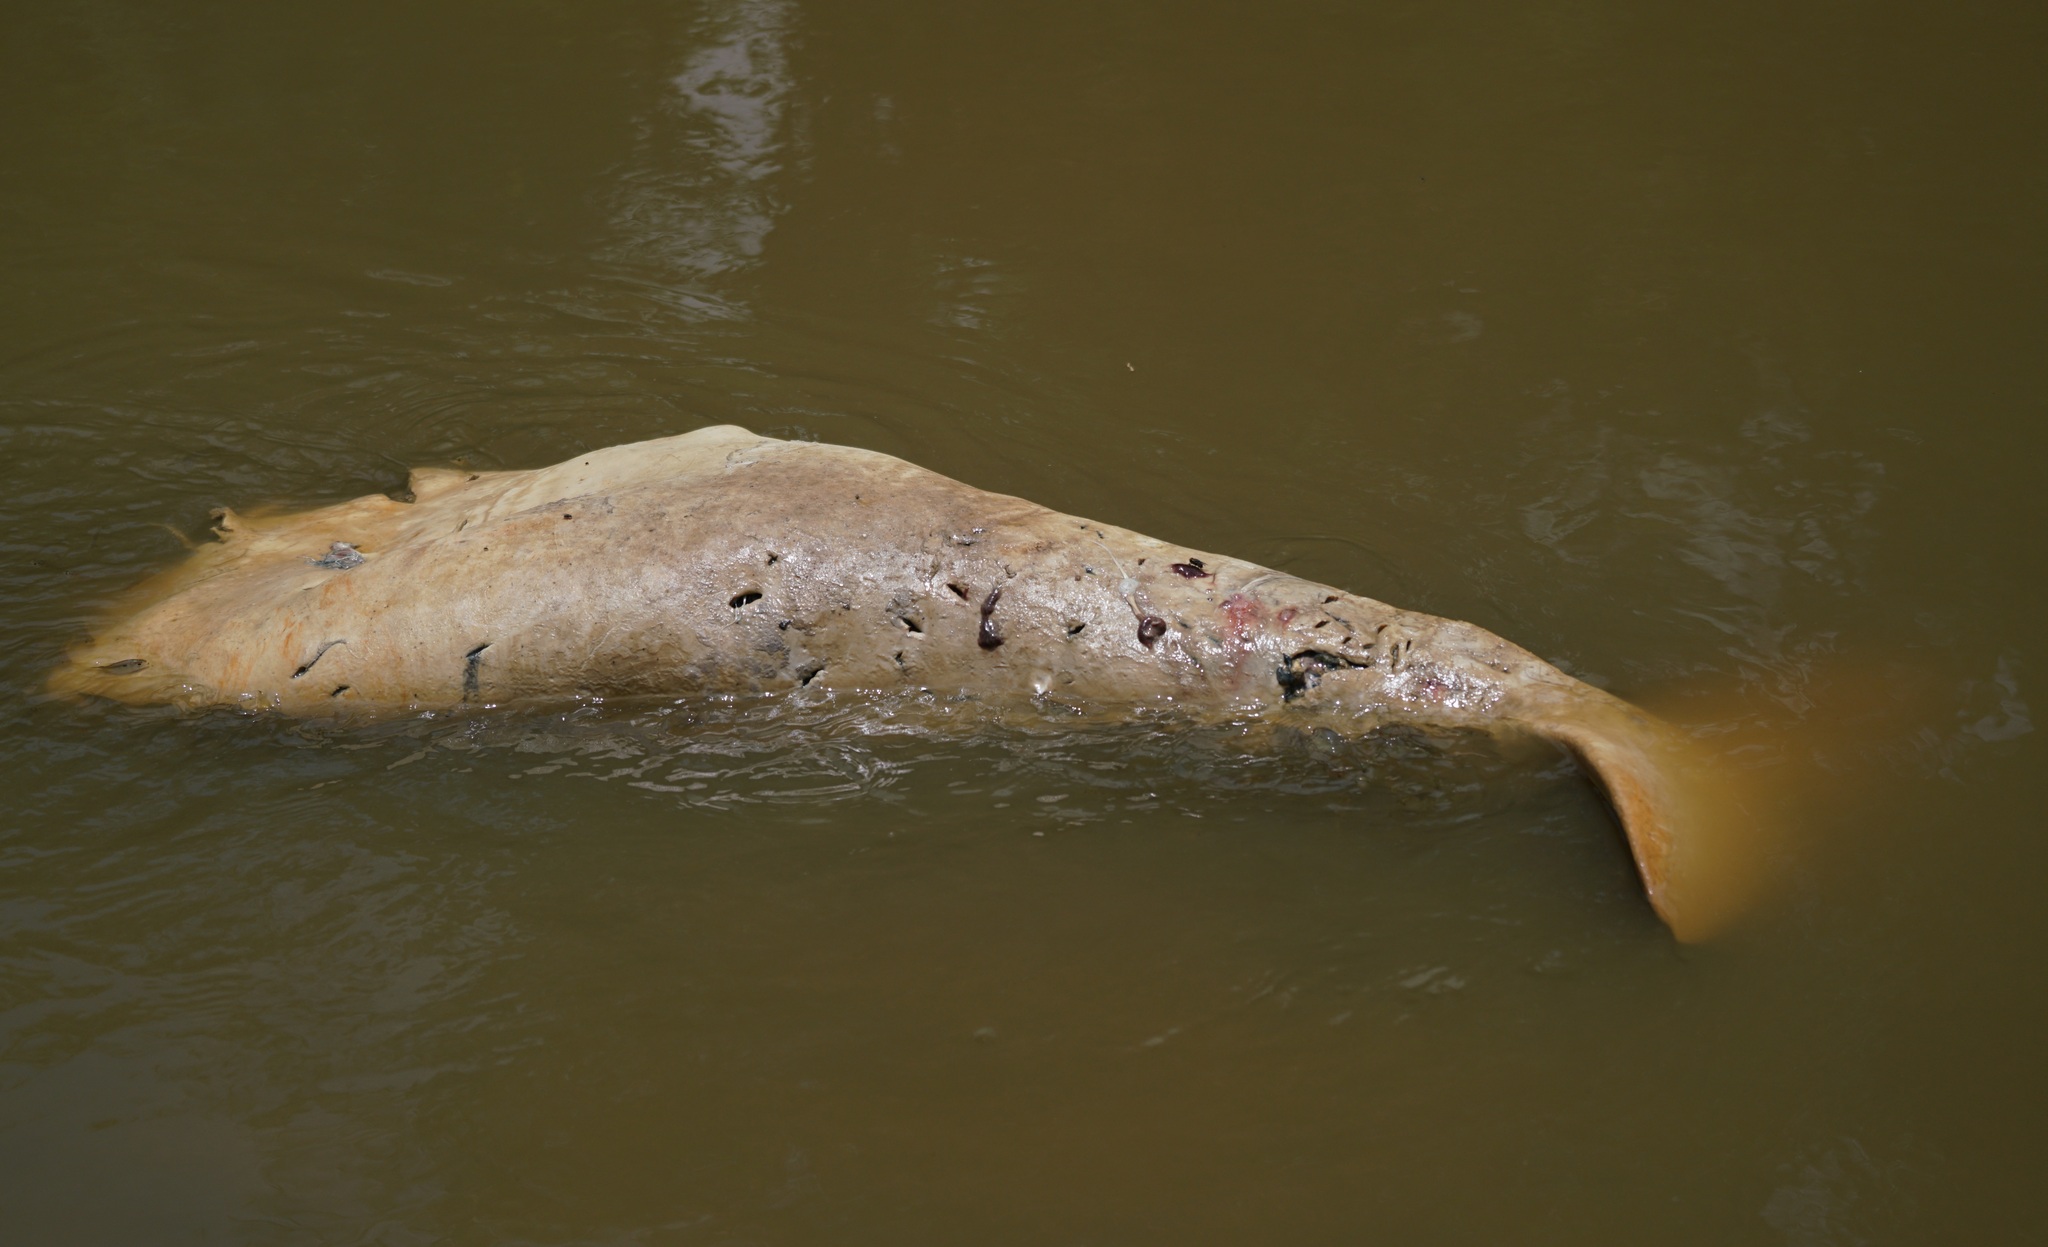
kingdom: Animalia
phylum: Chordata
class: Mammalia
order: Cetacea
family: Iniidae
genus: Inia
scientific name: Inia geoffrensis
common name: Amazon river dolphin
